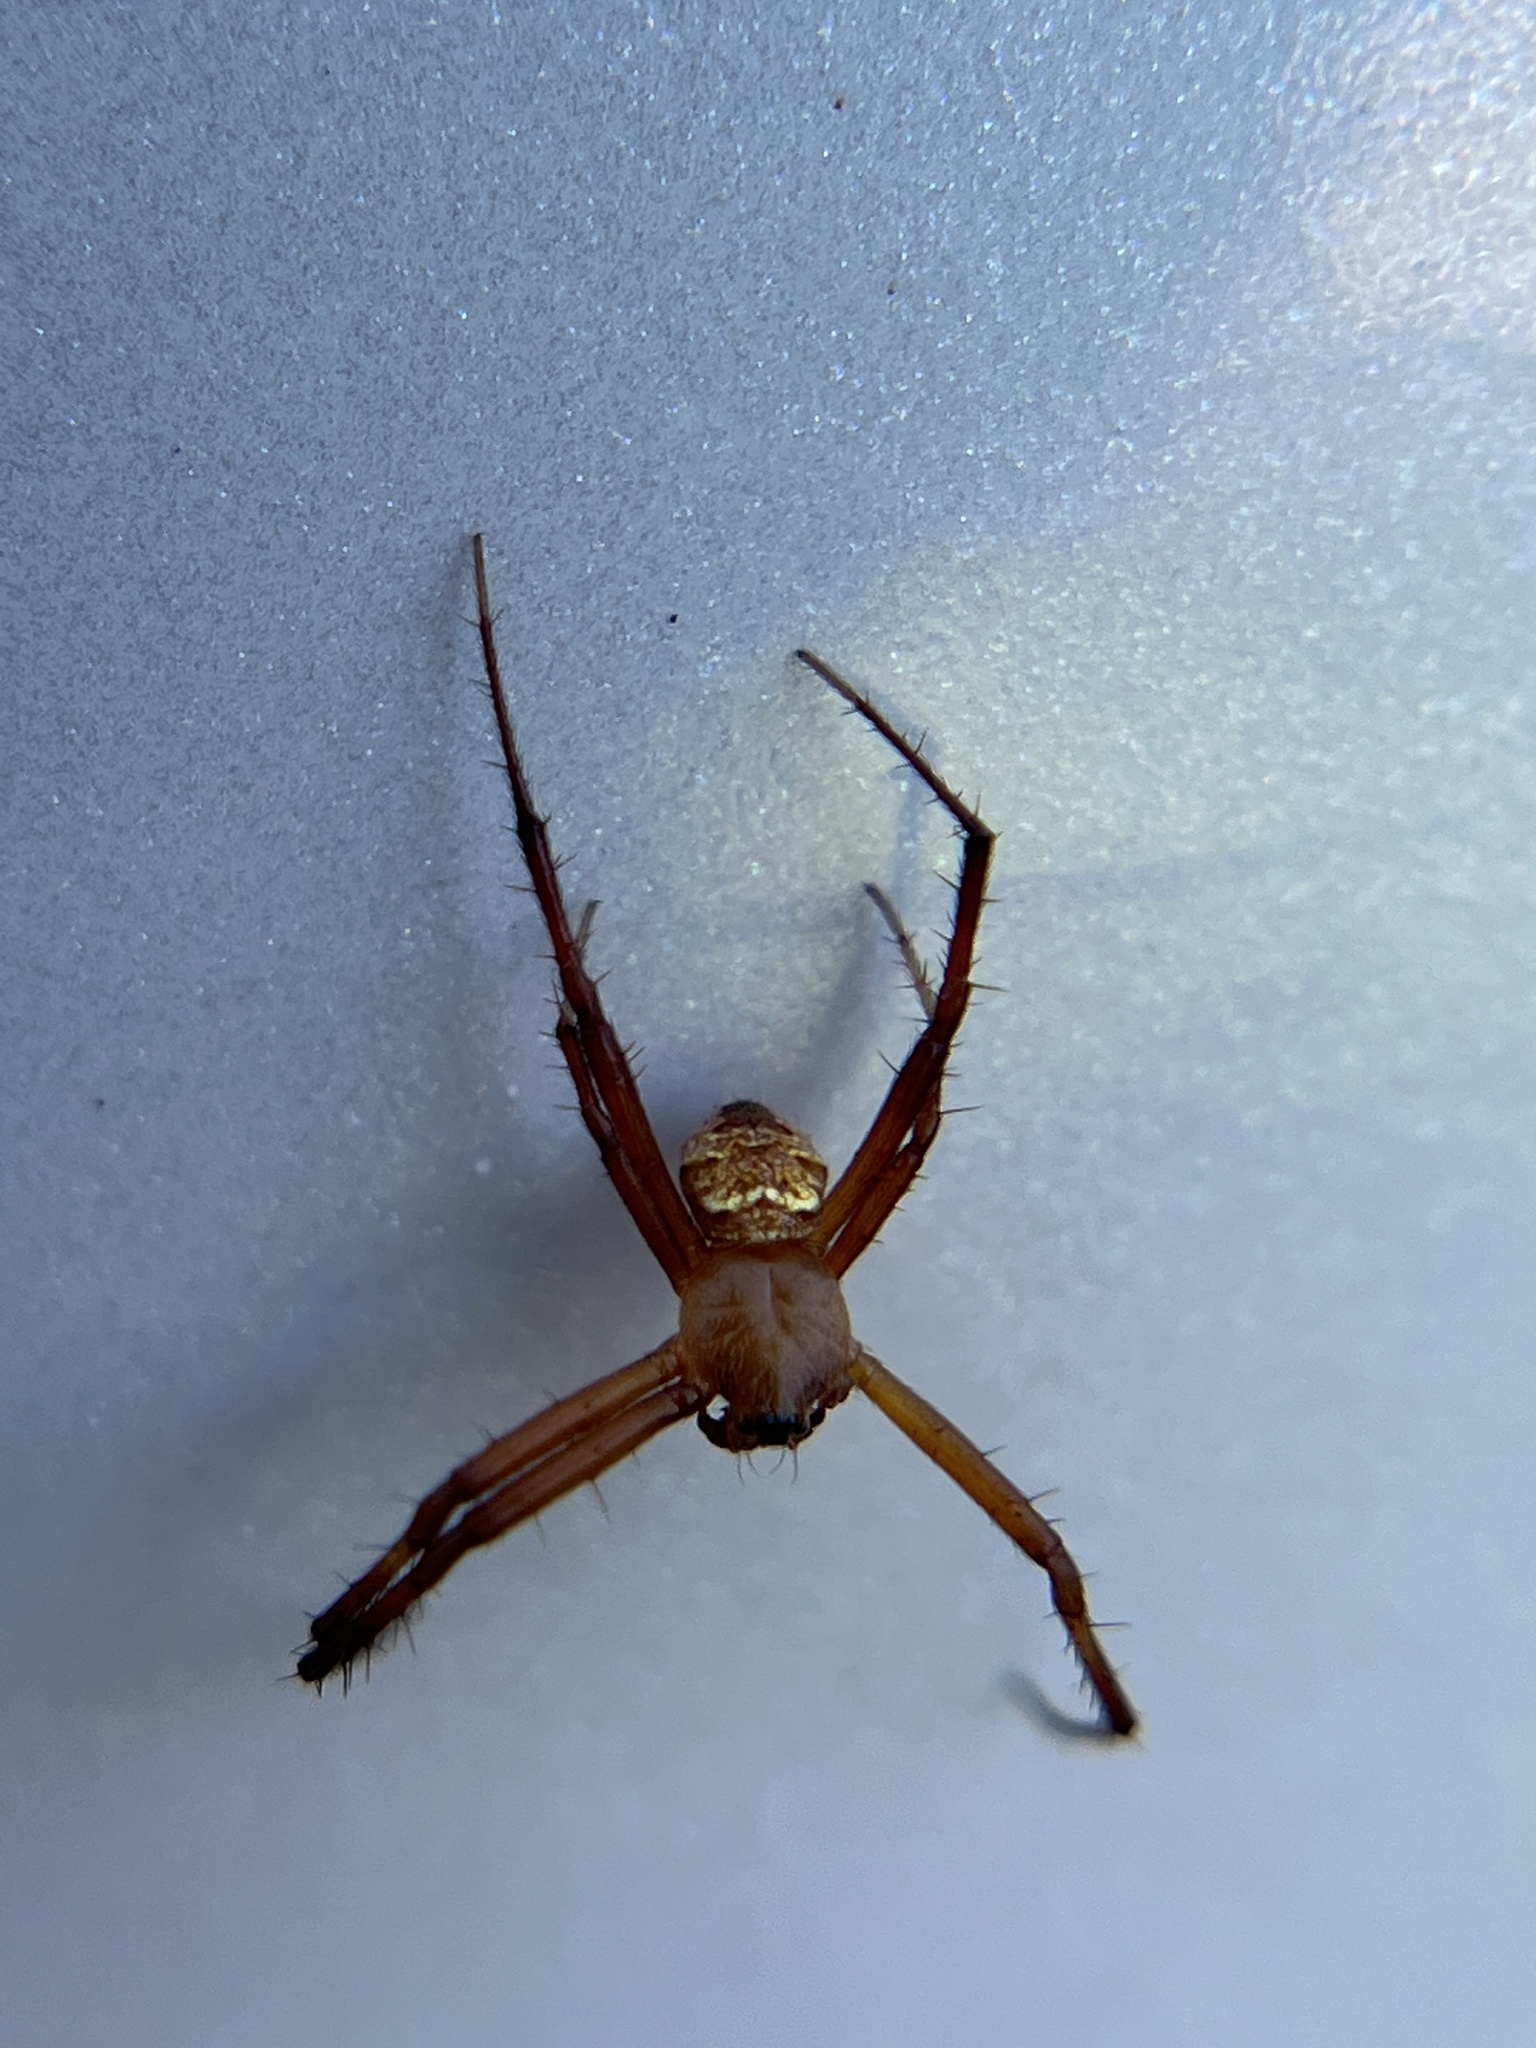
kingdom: Animalia
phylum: Arthropoda
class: Arachnida
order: Araneae
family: Araneidae
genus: Gea
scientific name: Gea heptagon
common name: Orb weavers
